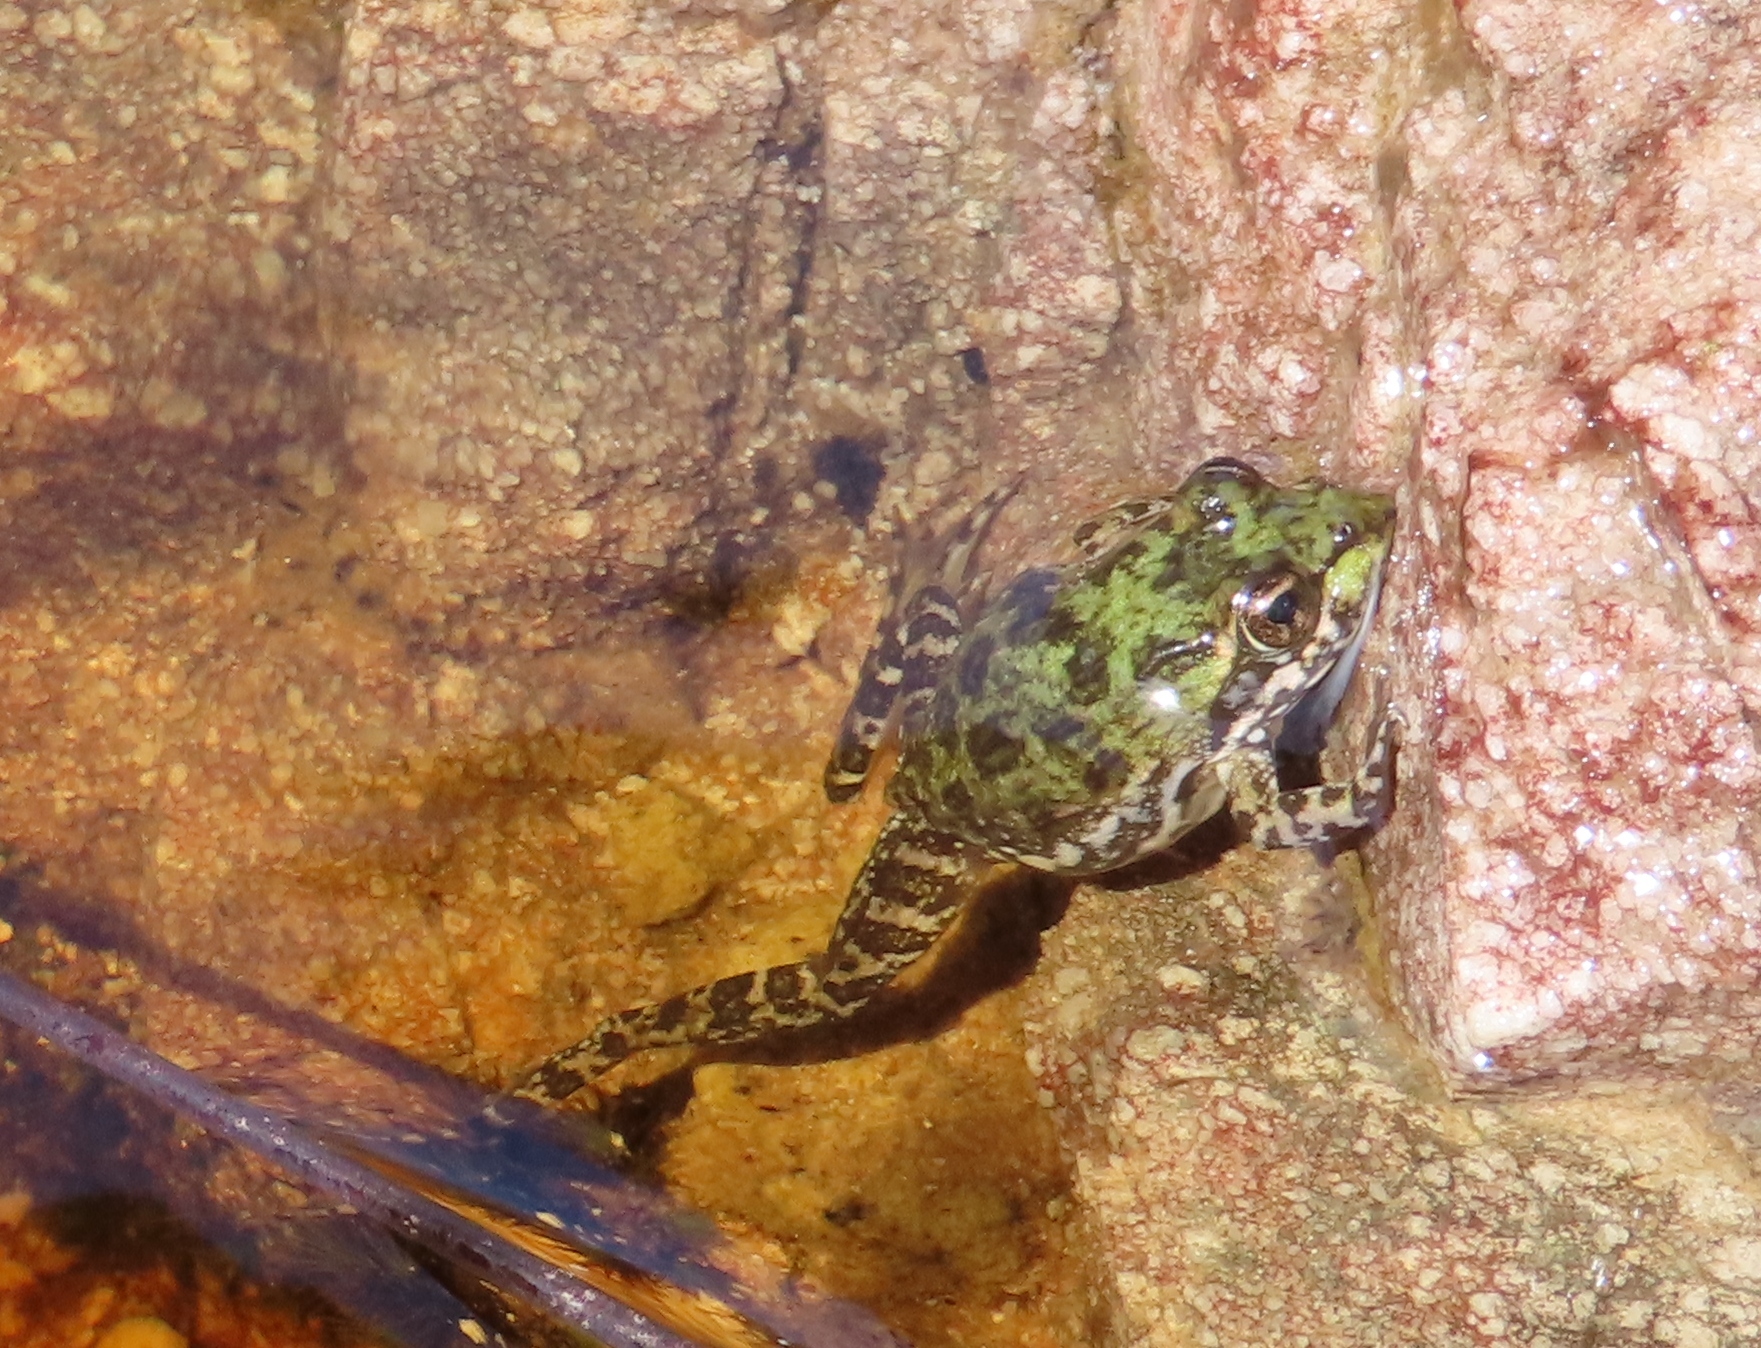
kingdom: Animalia
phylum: Chordata
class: Amphibia
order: Anura
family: Pyxicephalidae
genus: Amietia
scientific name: Amietia fuscigula
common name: Cape rana
